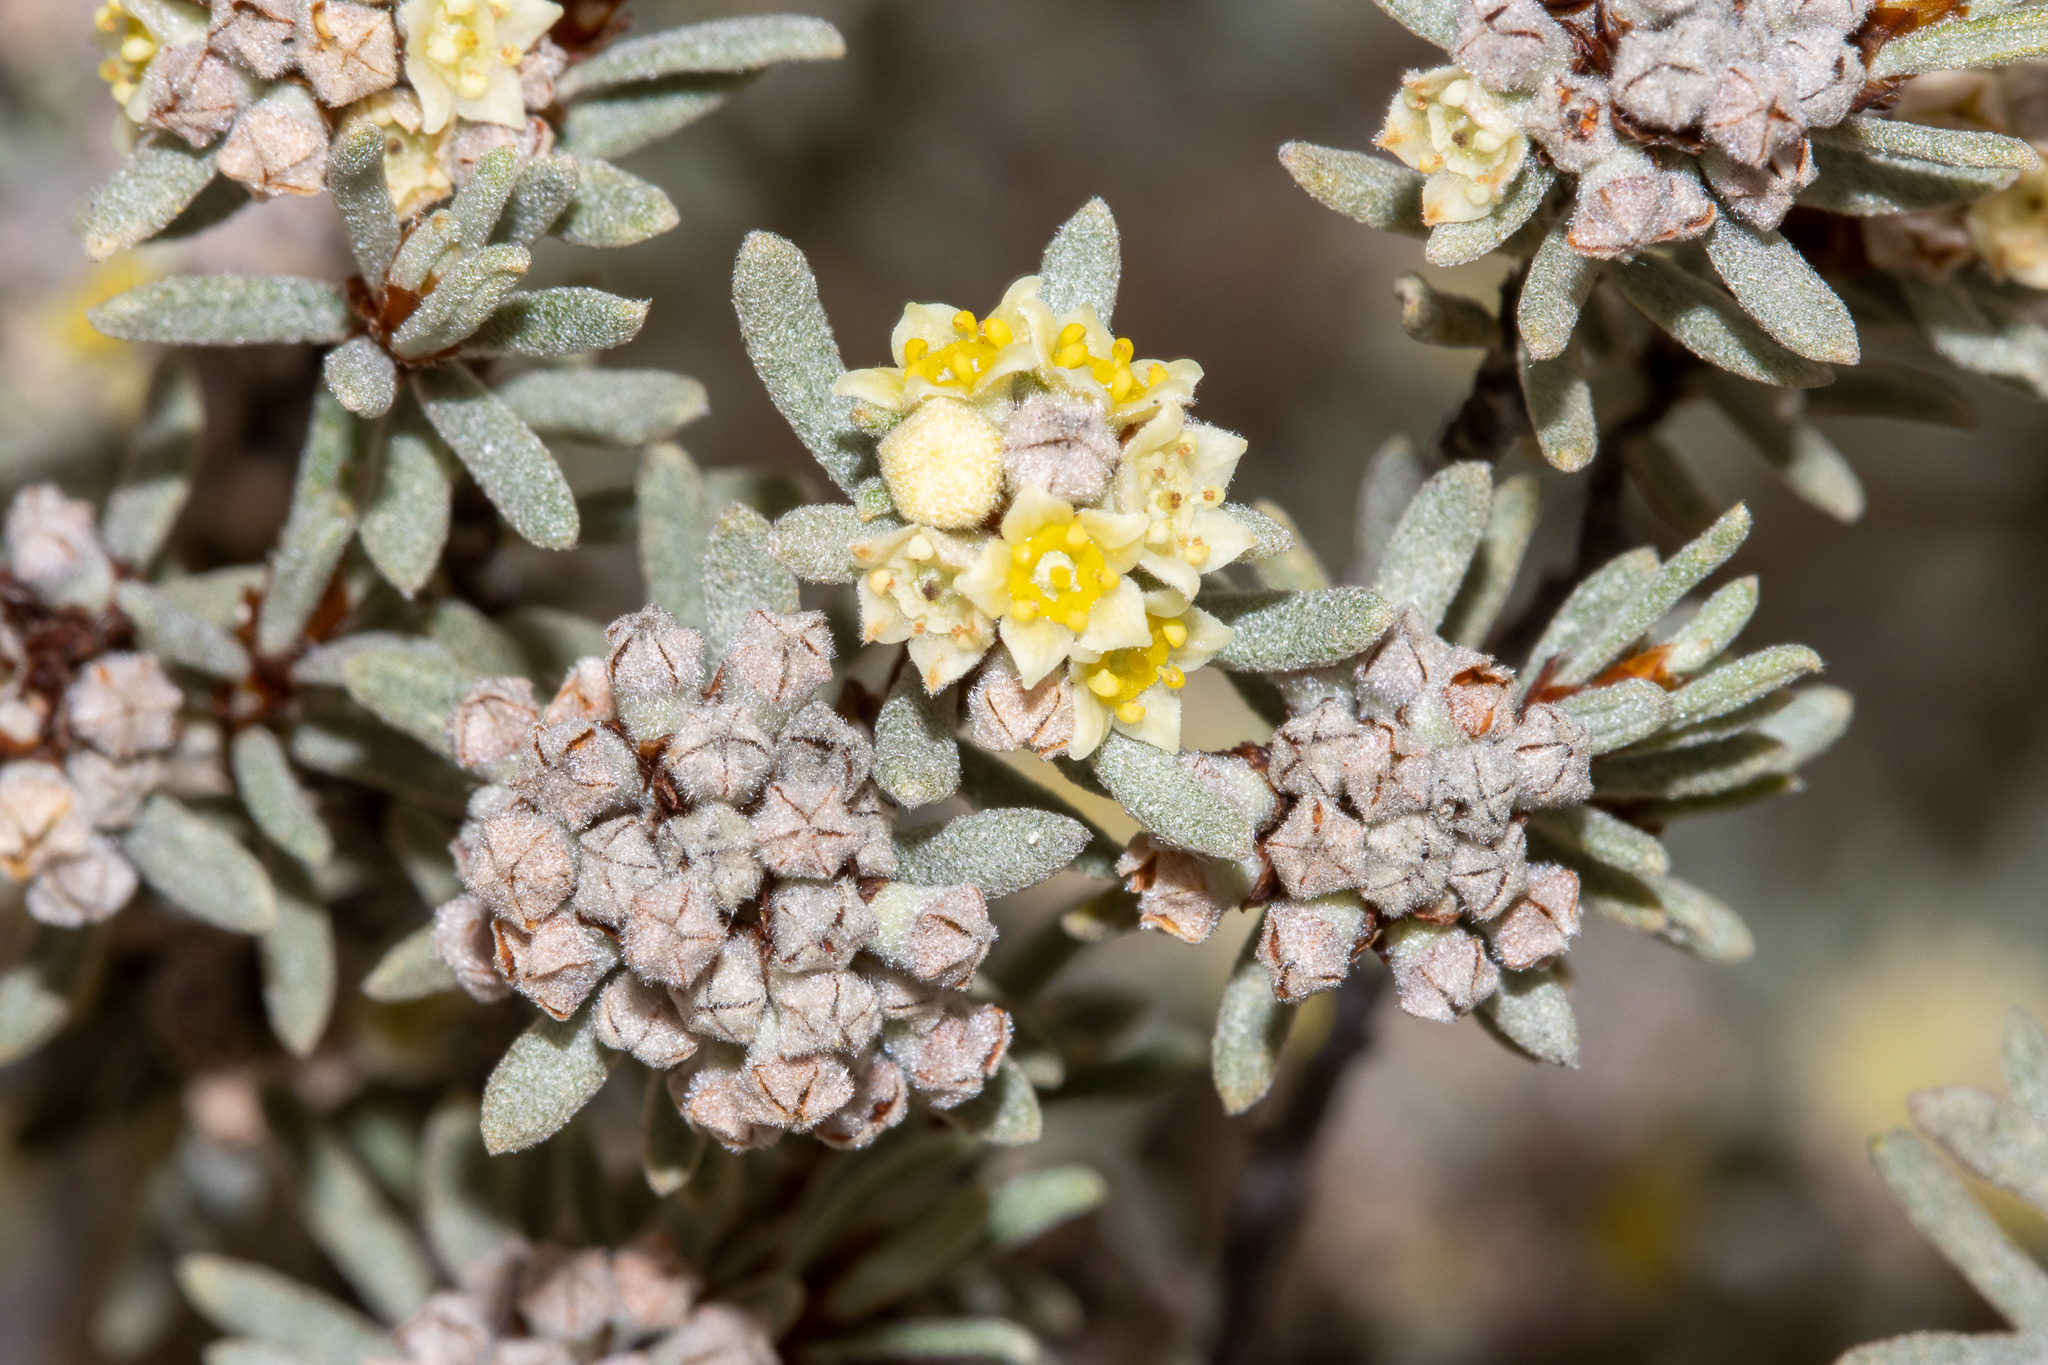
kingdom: Plantae
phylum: Tracheophyta
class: Magnoliopsida
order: Rosales
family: Rhamnaceae
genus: Spyridium
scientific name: Spyridium subochreatum
